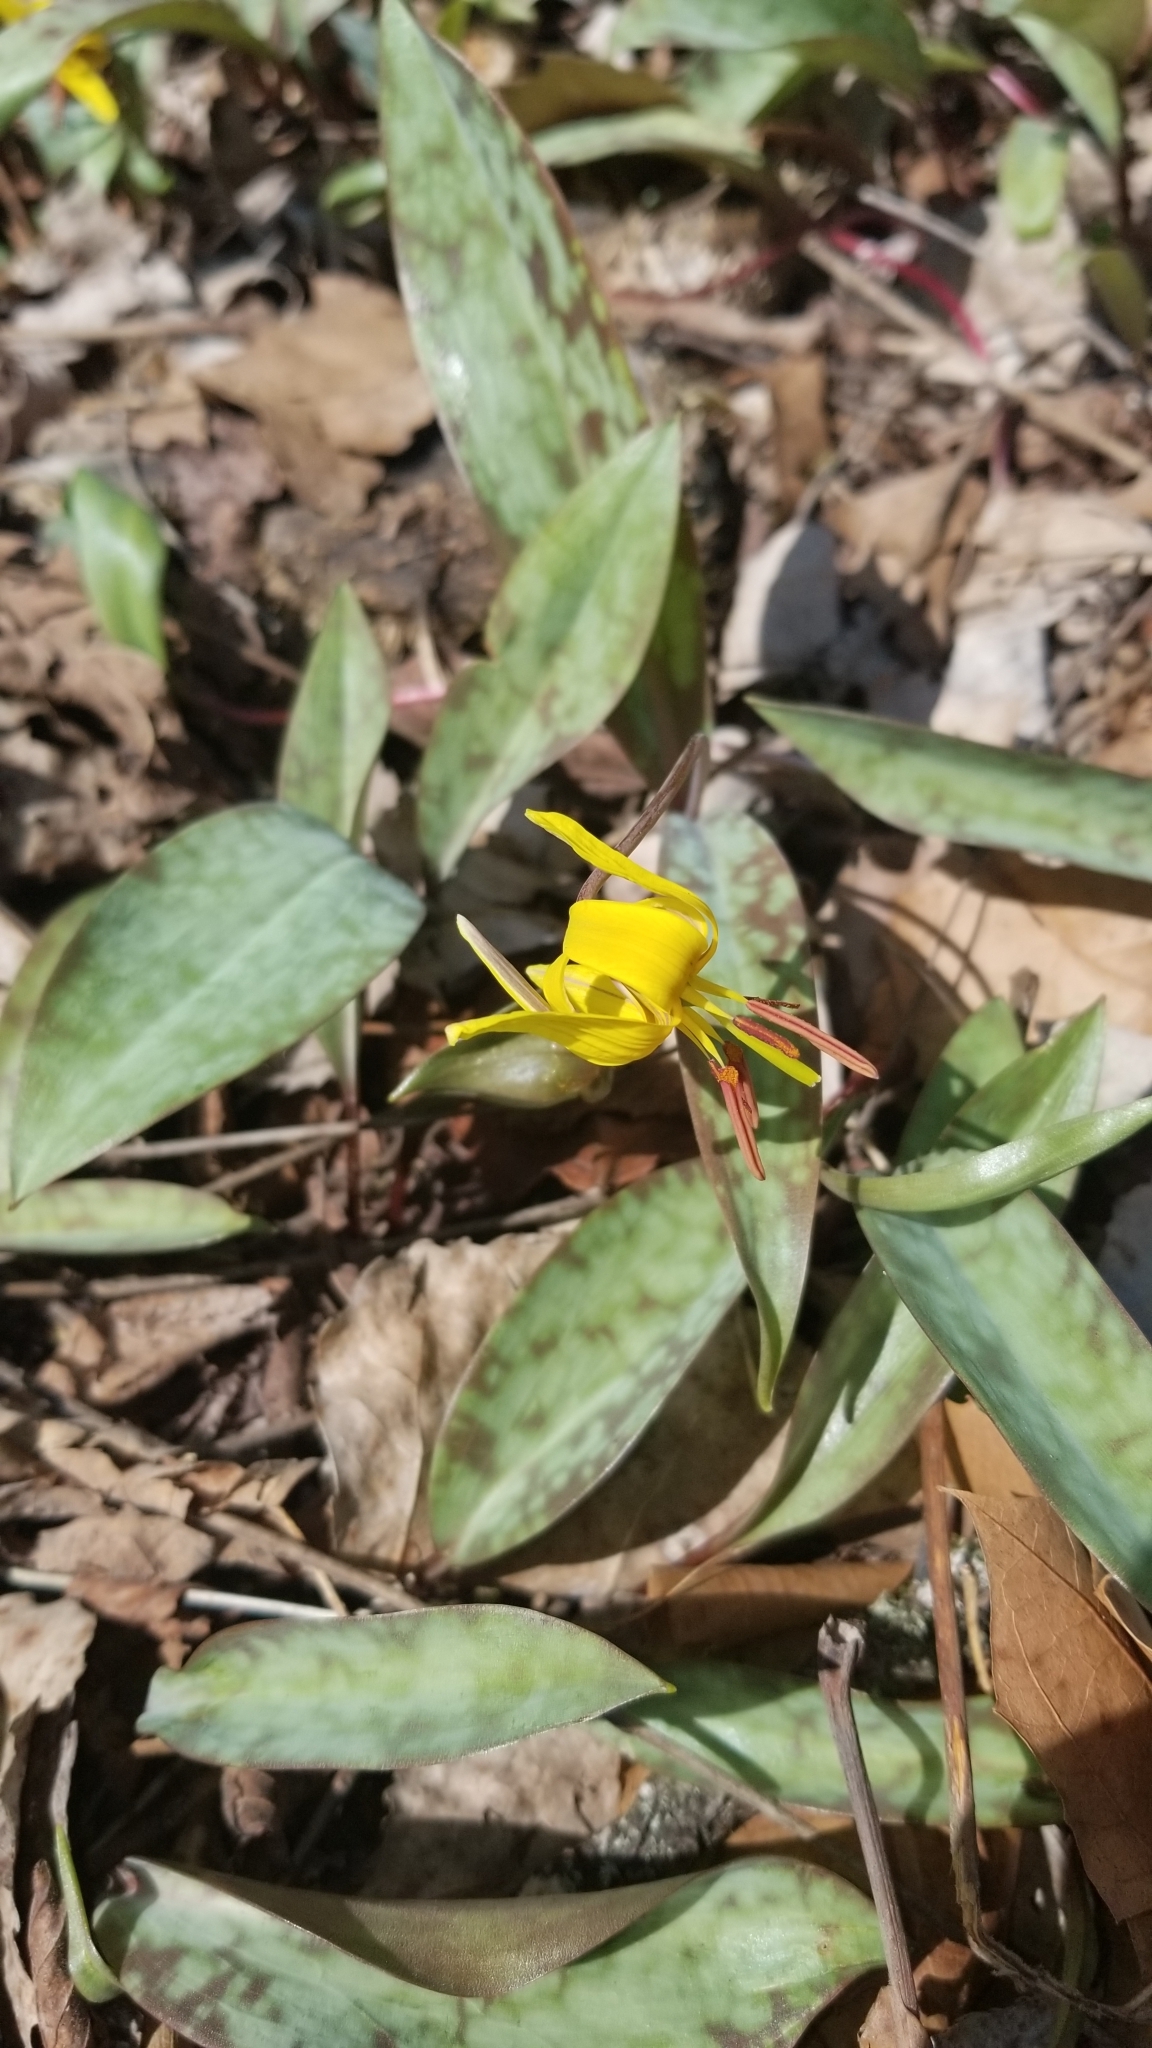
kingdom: Plantae
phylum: Tracheophyta
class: Liliopsida
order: Liliales
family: Liliaceae
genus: Erythronium
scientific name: Erythronium americanum
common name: Yellow adder's-tongue
